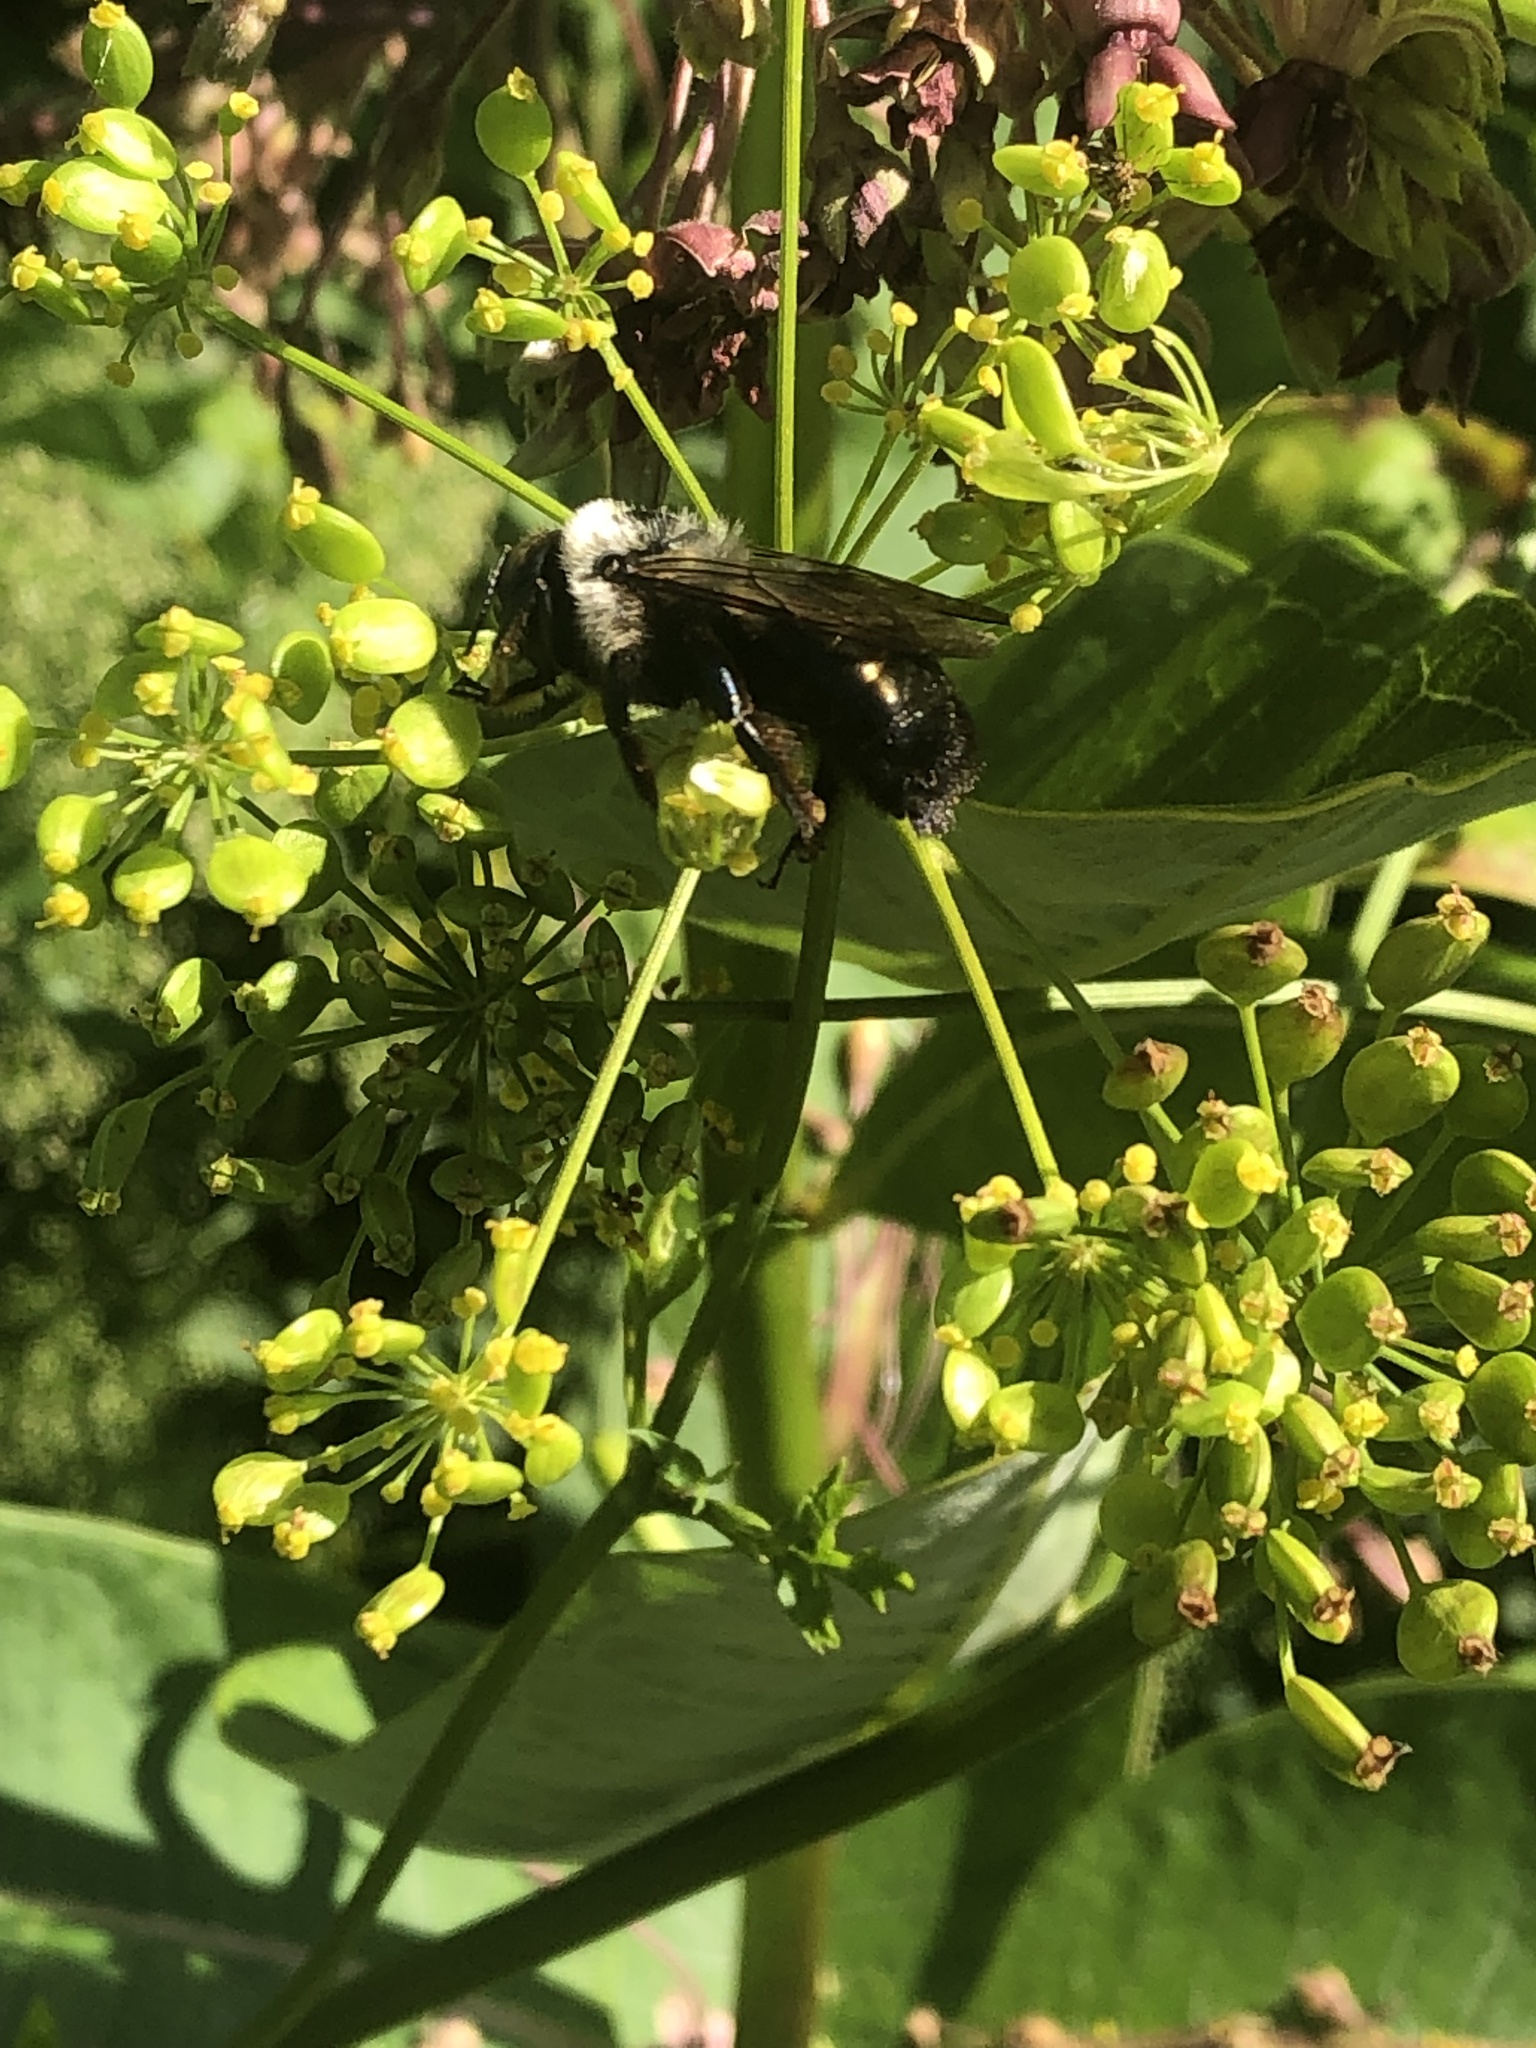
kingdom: Animalia
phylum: Arthropoda
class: Insecta
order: Hymenoptera
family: Apidae
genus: Xylocopa
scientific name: Xylocopa virginica
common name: Carpenter bee
